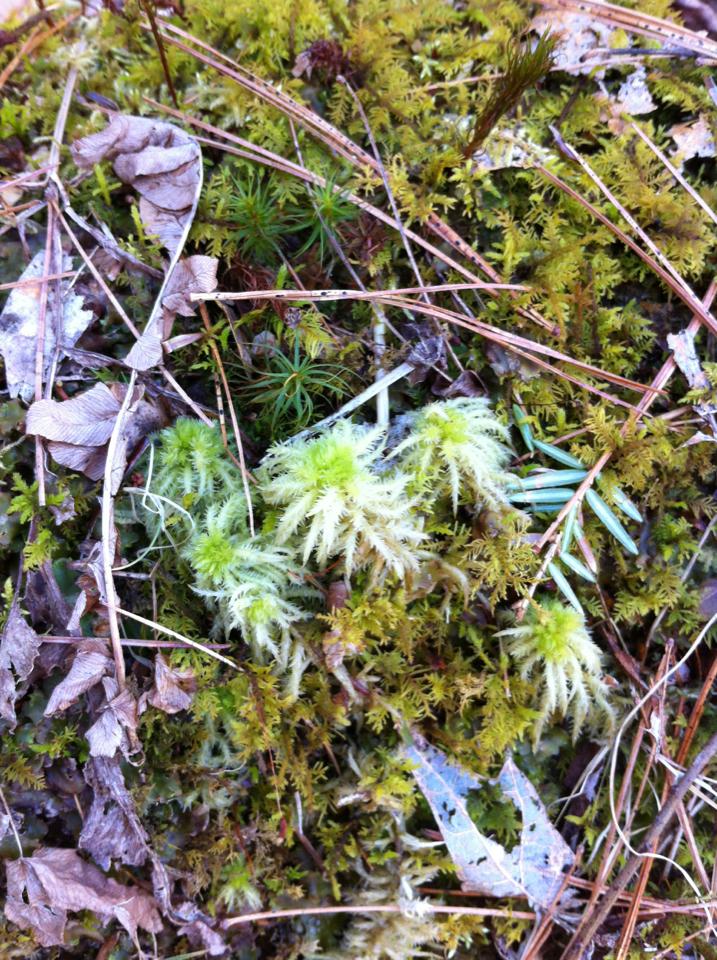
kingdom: Plantae
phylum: Bryophyta
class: Sphagnopsida
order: Sphagnales
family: Sphagnaceae
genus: Sphagnum
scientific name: Sphagnum squarrosum
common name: Shaggy peat moss
